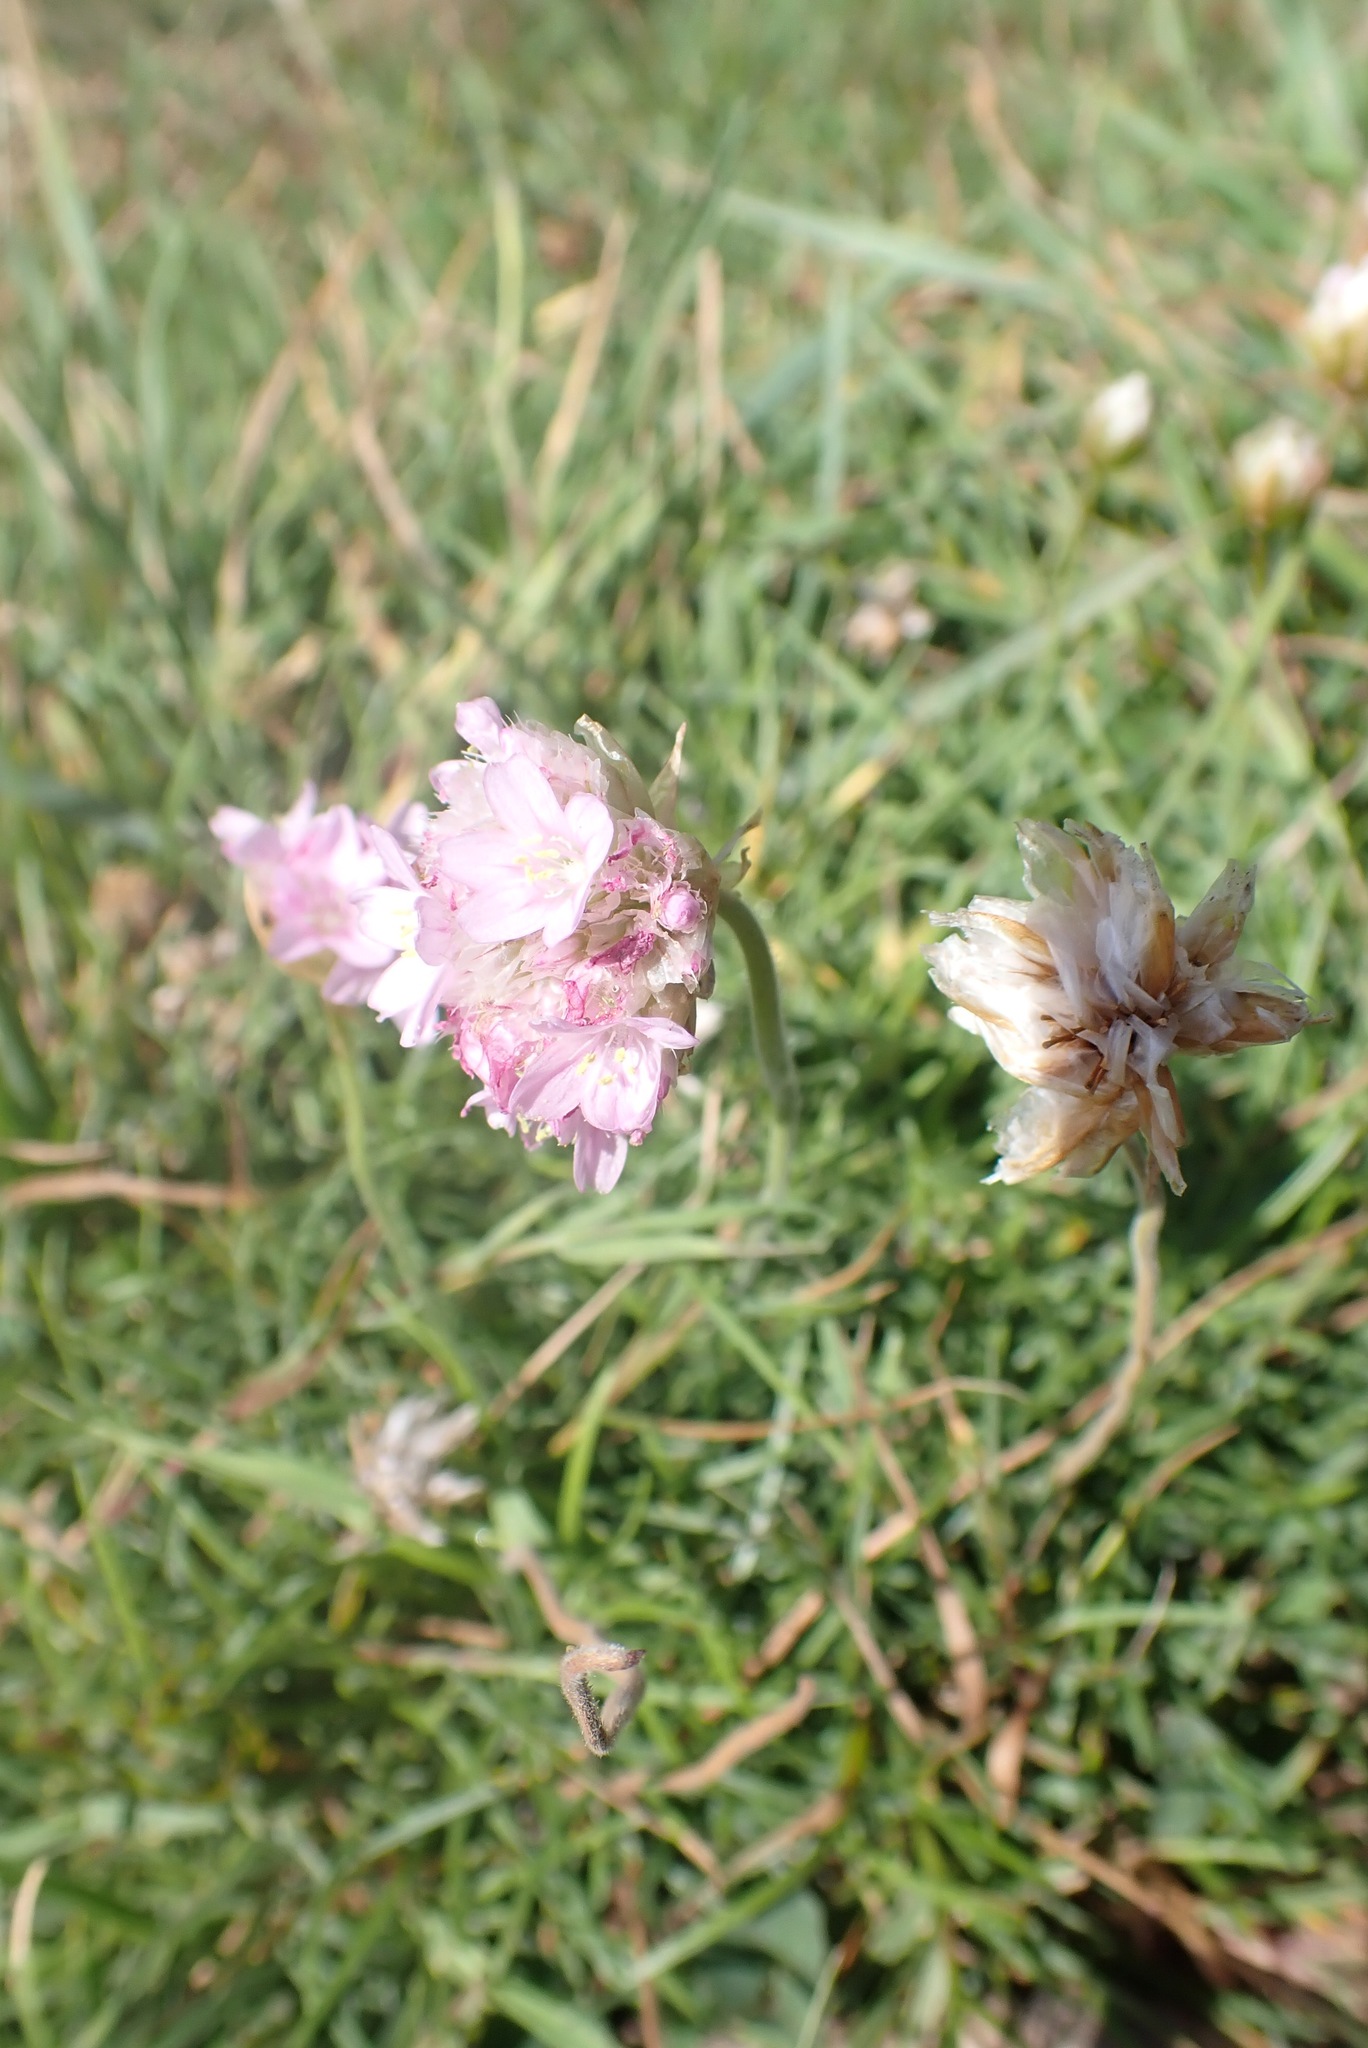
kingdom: Plantae
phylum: Tracheophyta
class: Magnoliopsida
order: Caryophyllales
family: Plumbaginaceae
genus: Armeria
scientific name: Armeria maritima
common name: Thrift
